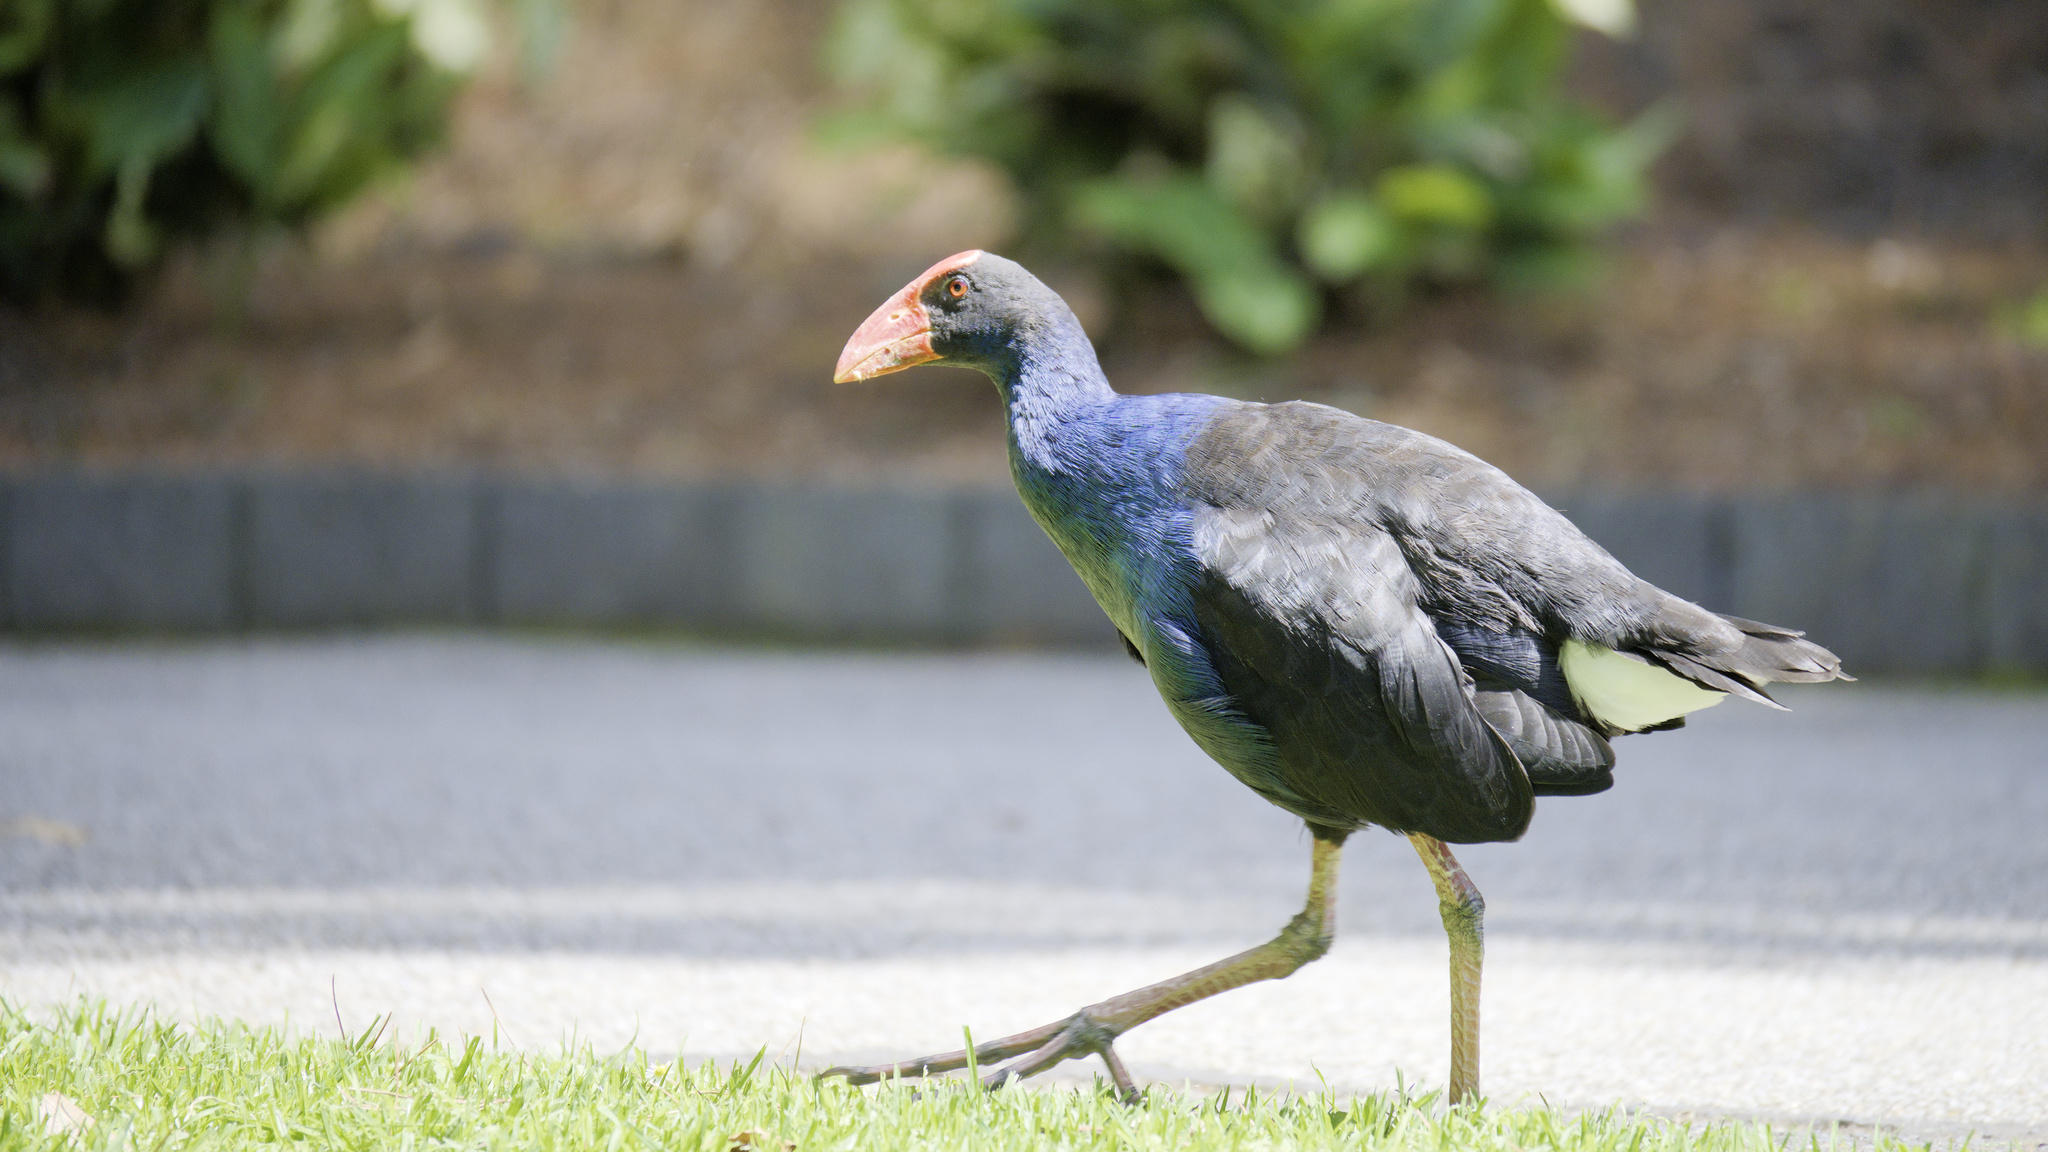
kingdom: Animalia
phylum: Chordata
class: Aves
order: Gruiformes
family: Rallidae
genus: Porphyrio
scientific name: Porphyrio melanotus
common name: Australasian swamphen
